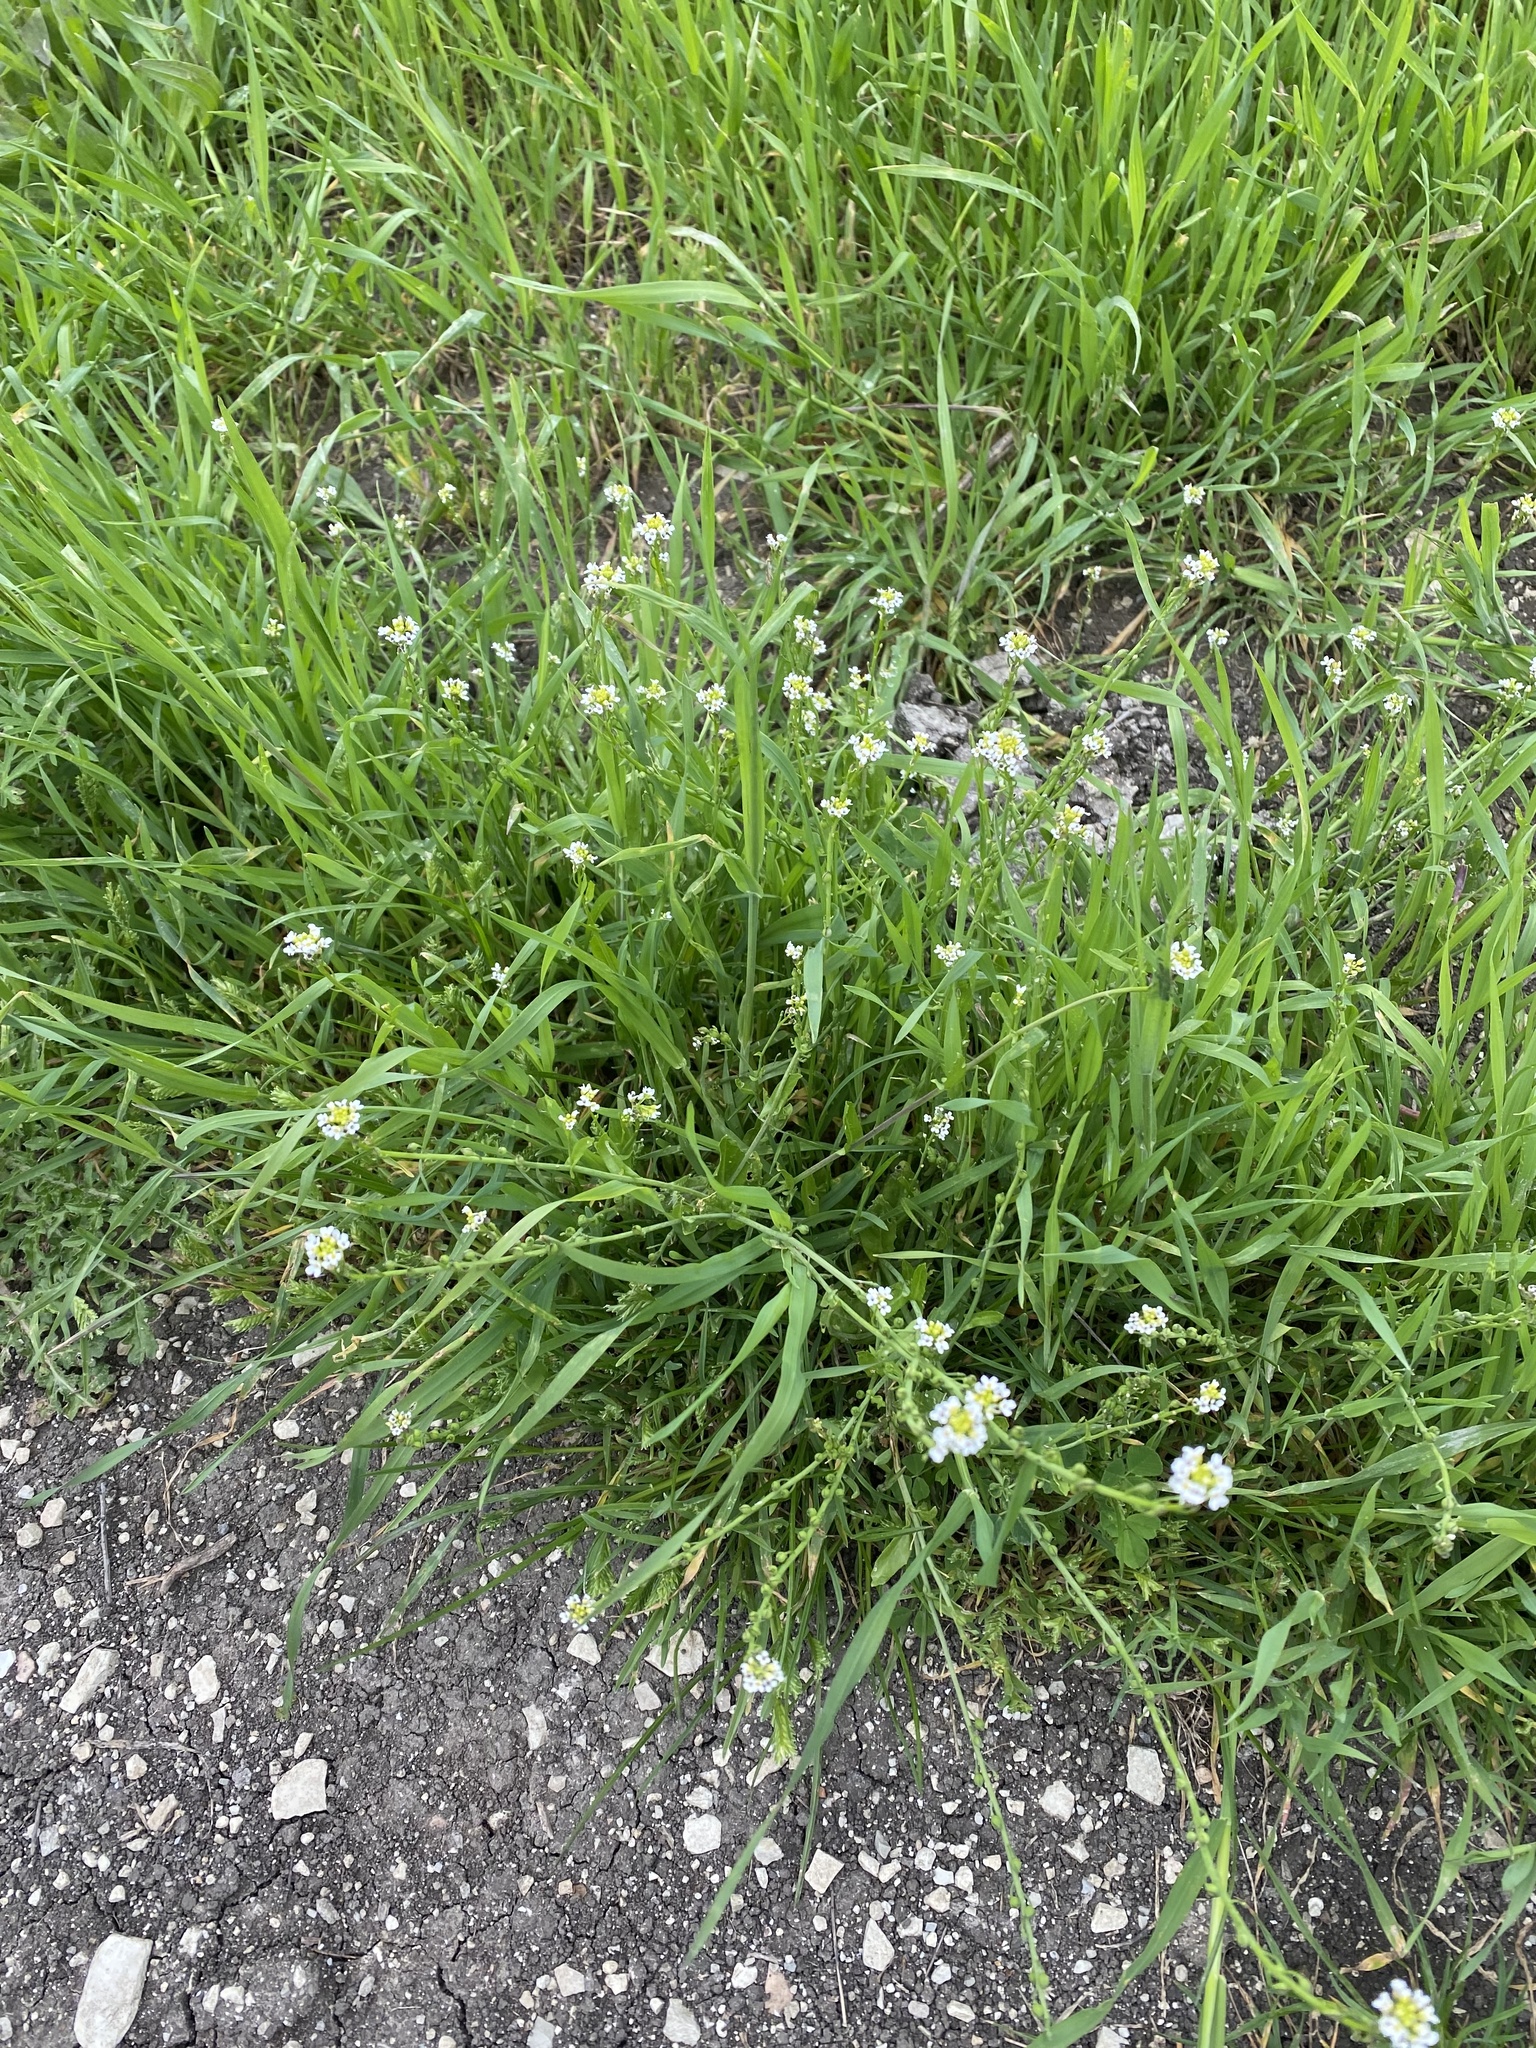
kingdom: Plantae
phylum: Tracheophyta
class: Magnoliopsida
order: Brassicales
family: Brassicaceae
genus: Calepina
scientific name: Calepina irregularis
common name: White ballmustard
